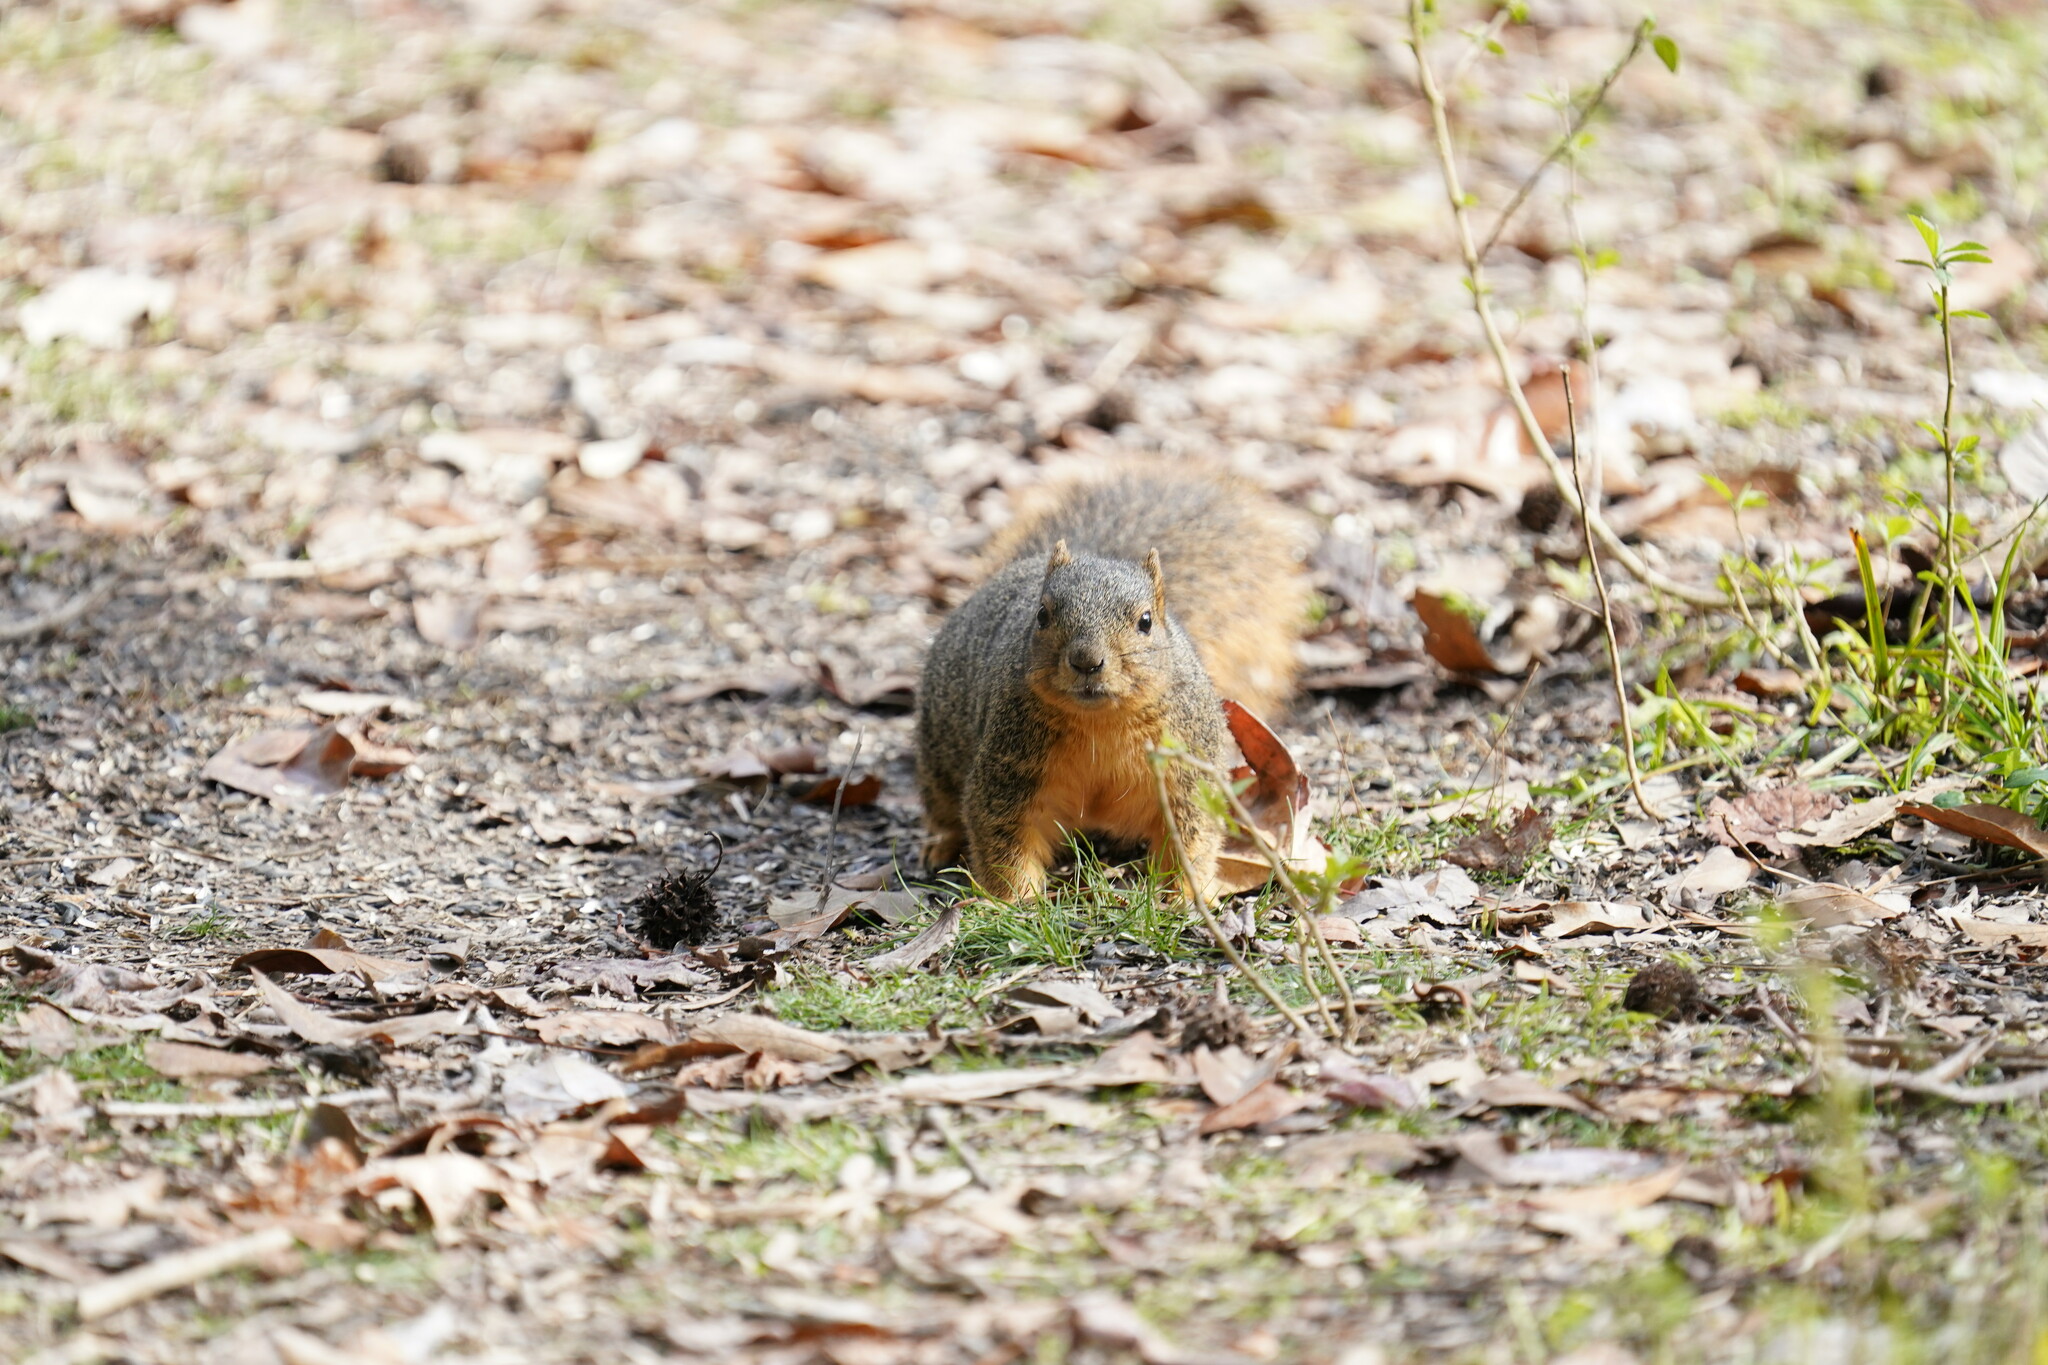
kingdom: Animalia
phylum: Chordata
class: Mammalia
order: Rodentia
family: Sciuridae
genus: Sciurus
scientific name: Sciurus niger
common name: Fox squirrel
